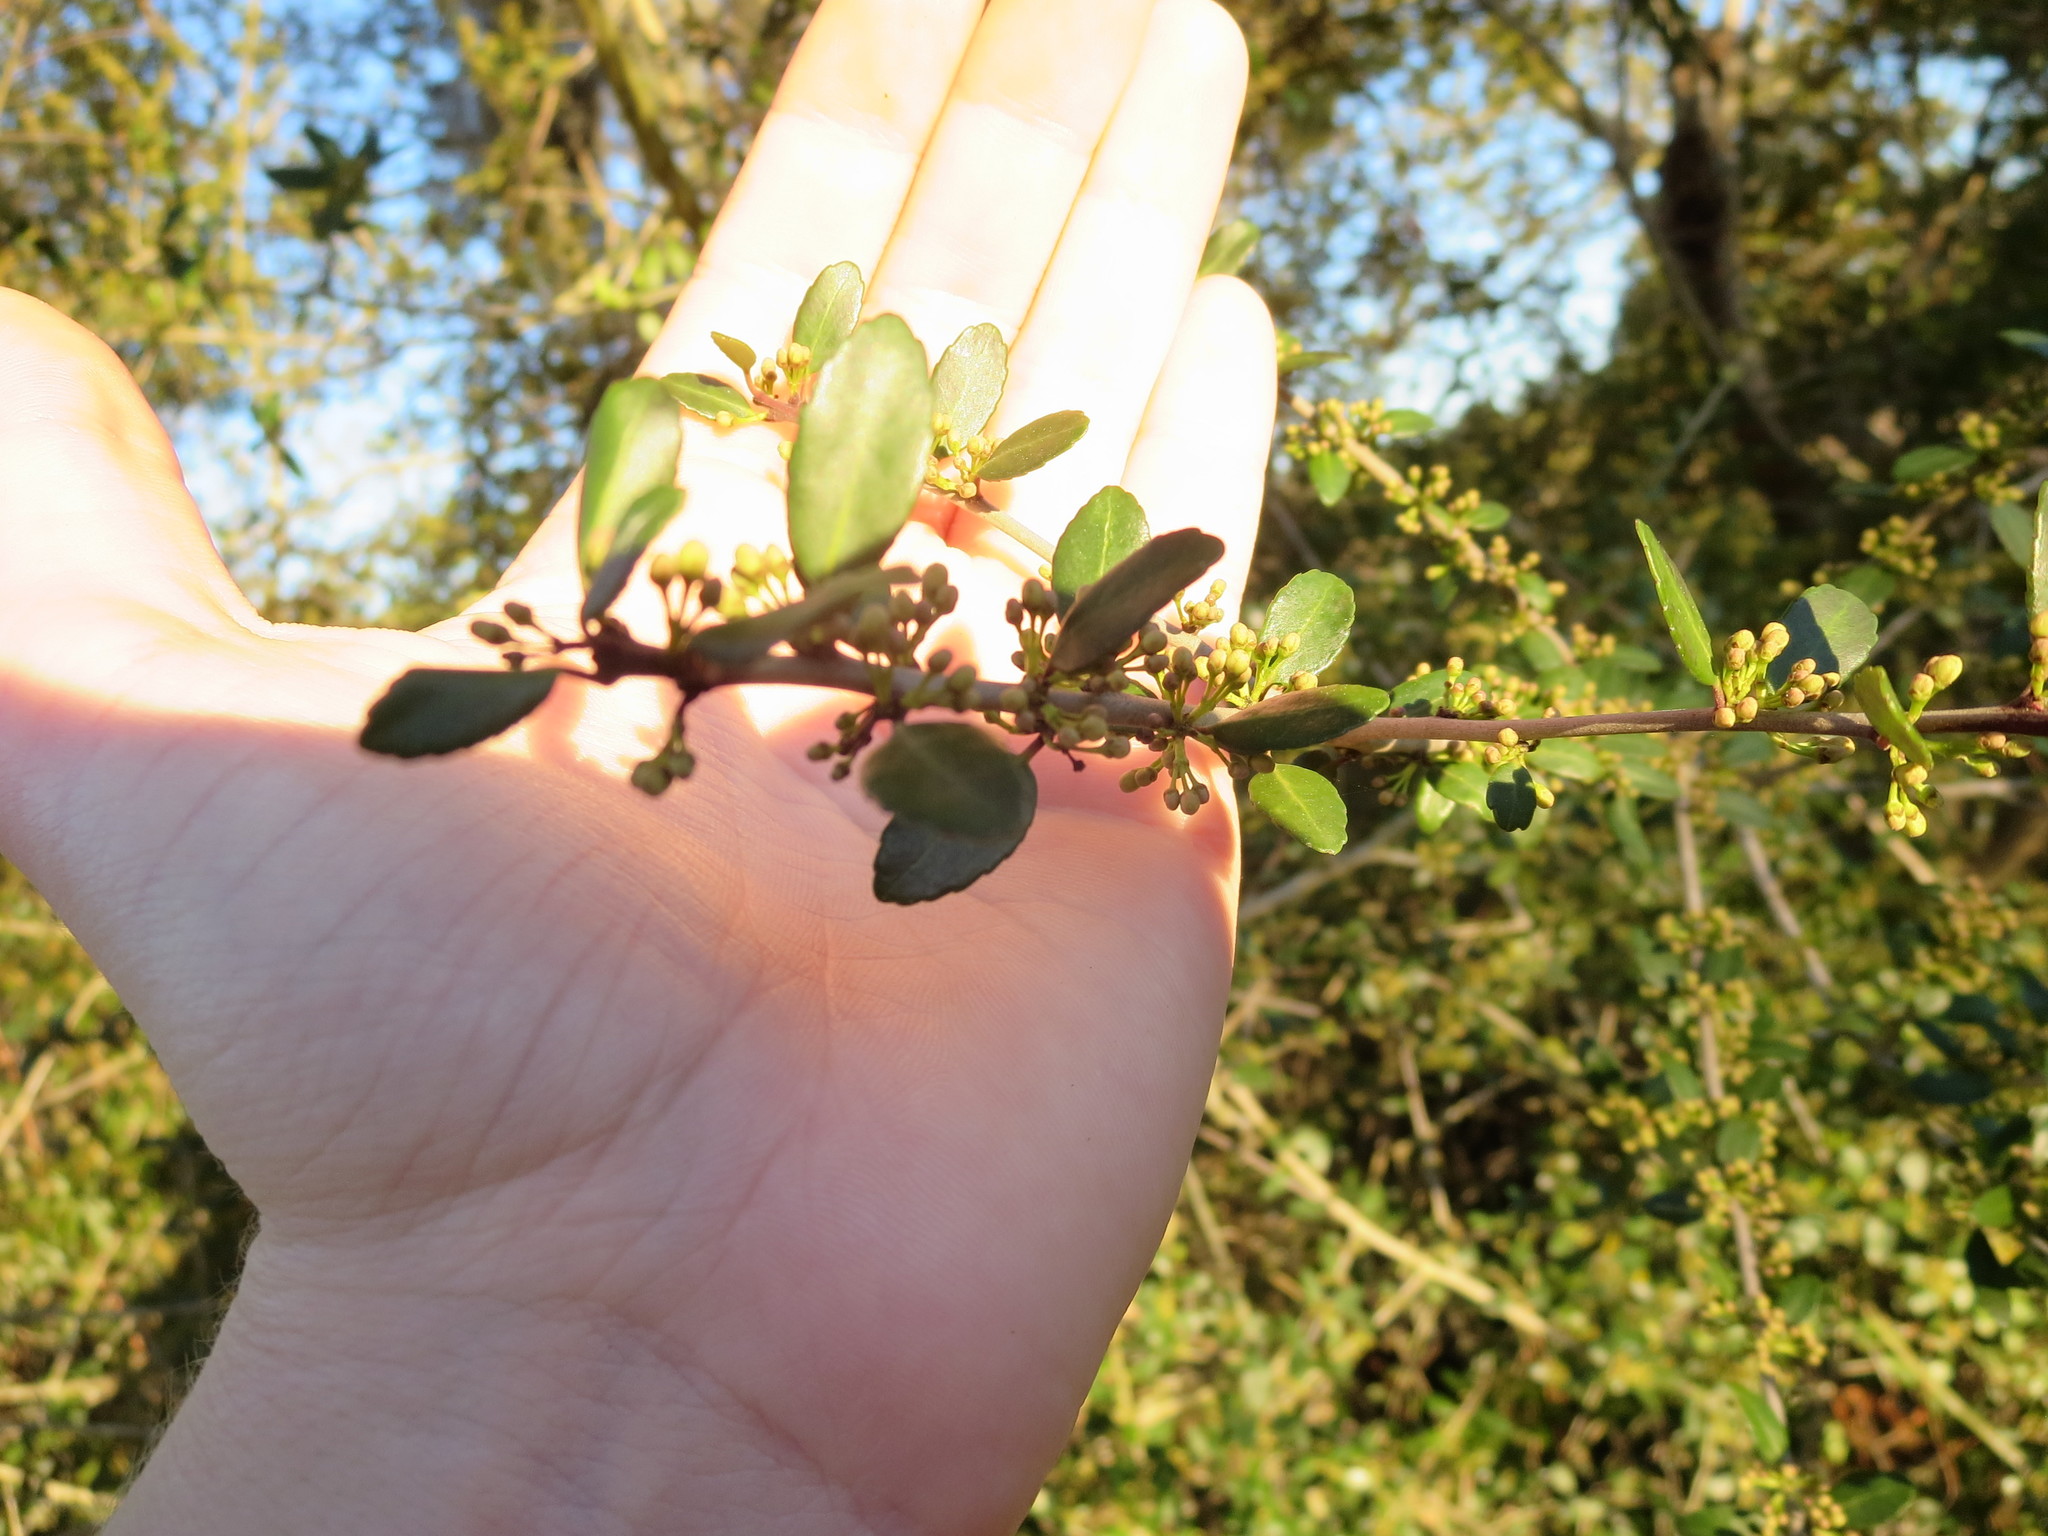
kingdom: Plantae
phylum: Tracheophyta
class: Magnoliopsida
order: Aquifoliales
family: Aquifoliaceae
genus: Ilex
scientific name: Ilex vomitoria
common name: Yaupon holly
